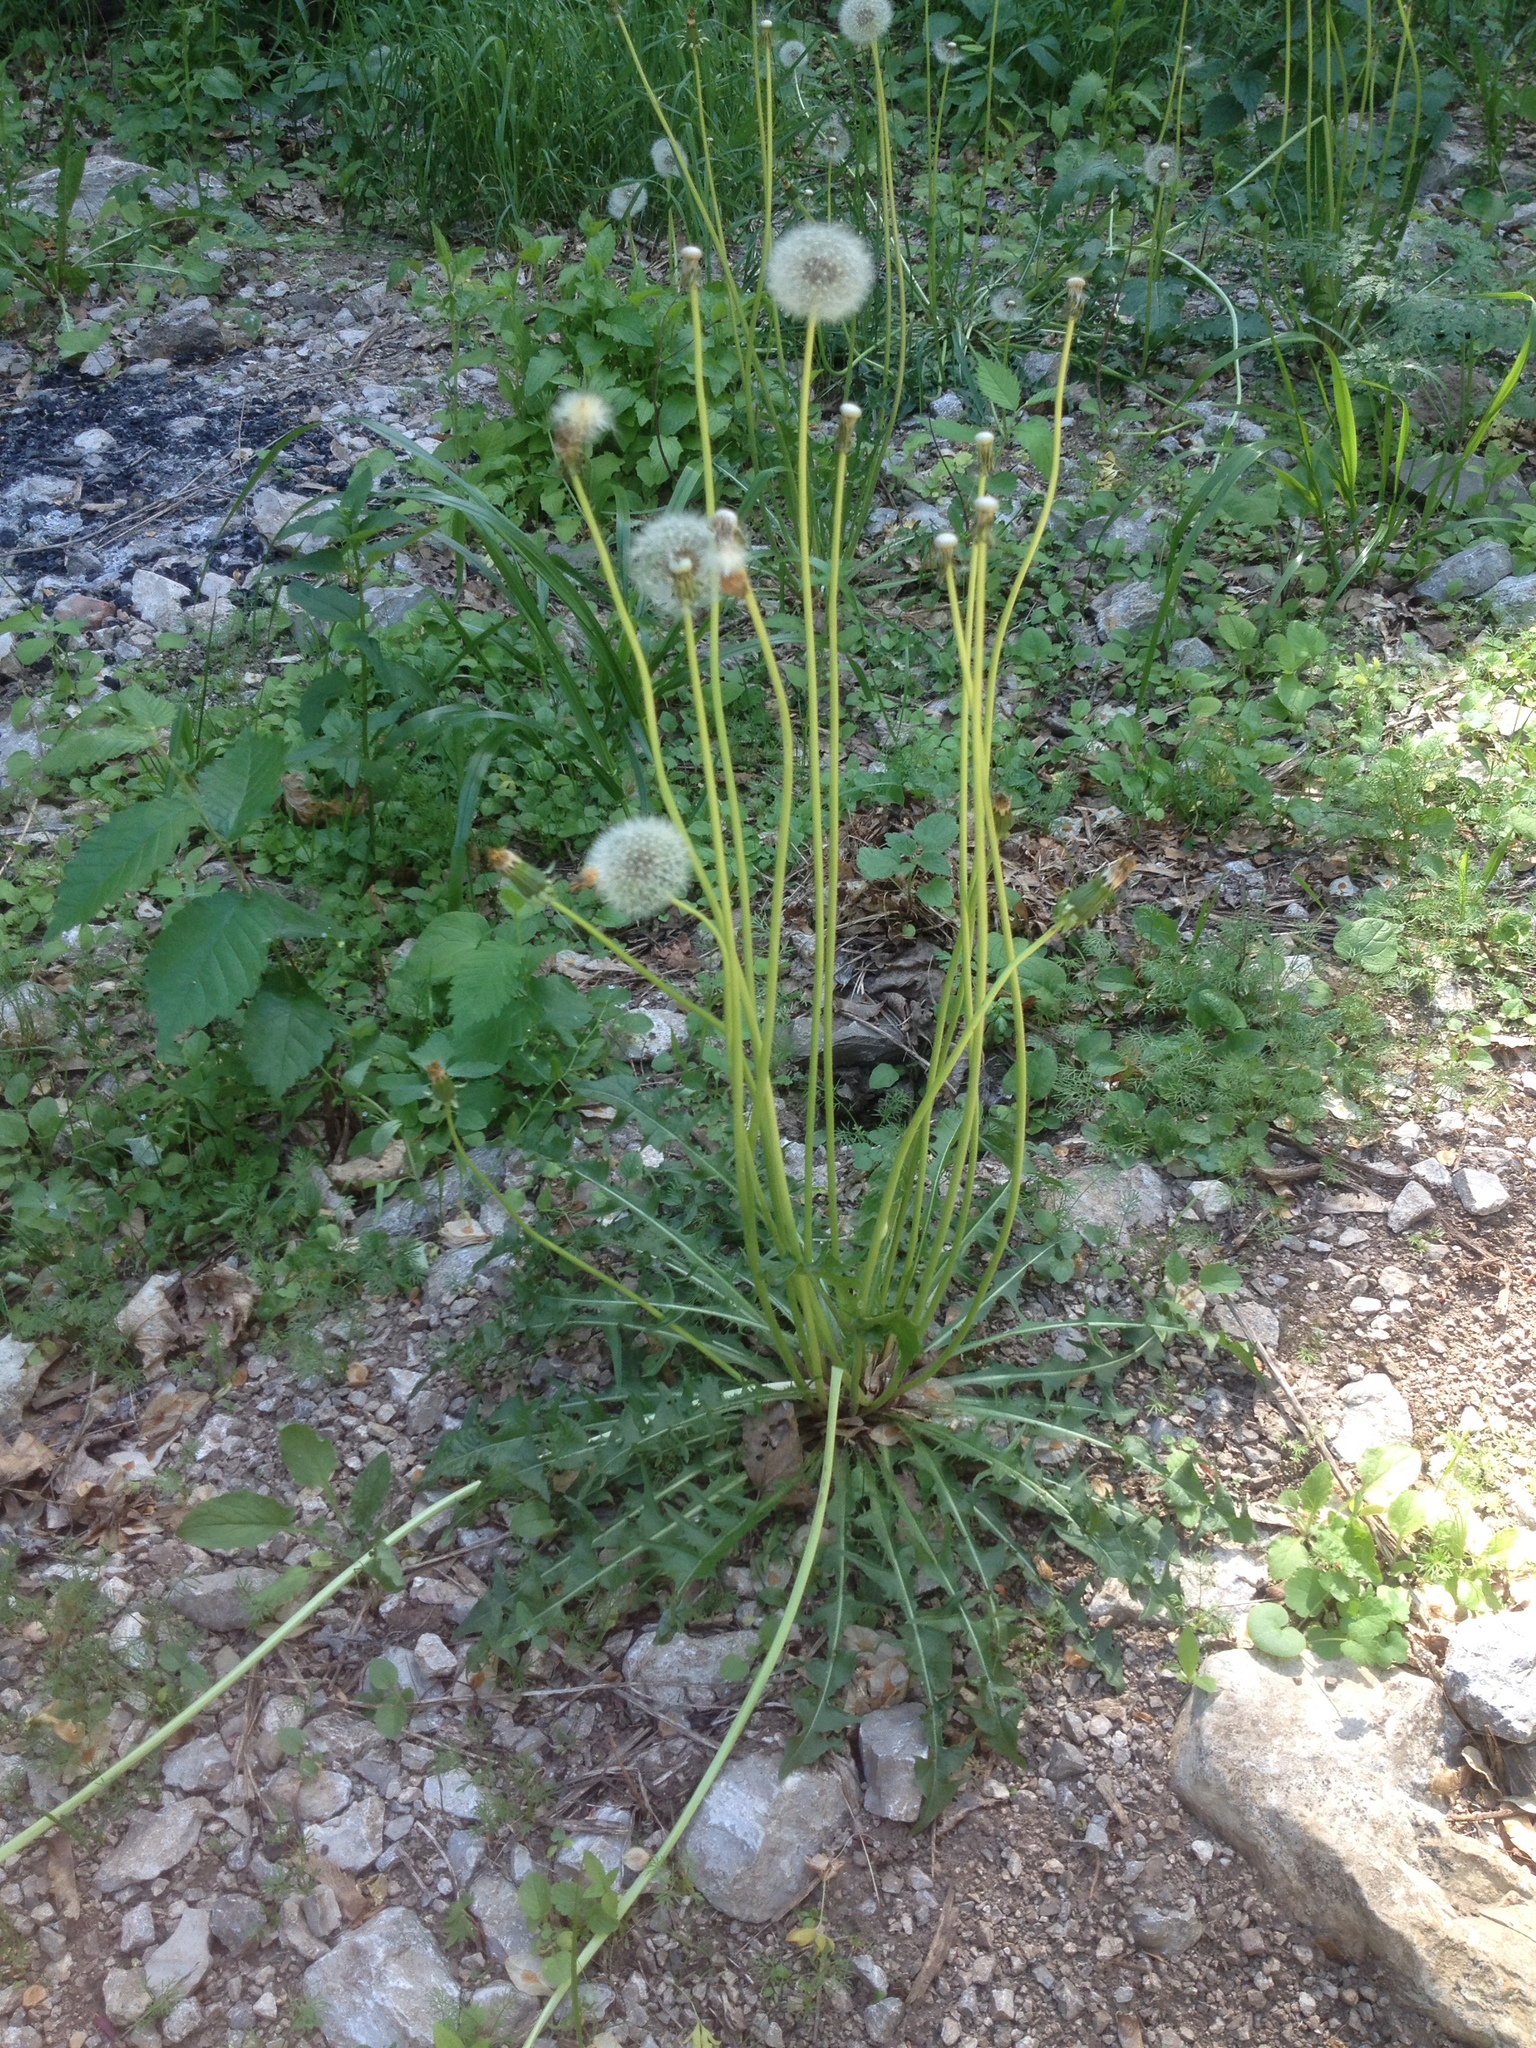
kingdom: Plantae
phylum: Tracheophyta
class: Magnoliopsida
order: Asterales
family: Asteraceae
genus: Taraxacum
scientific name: Taraxacum officinale
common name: Common dandelion
